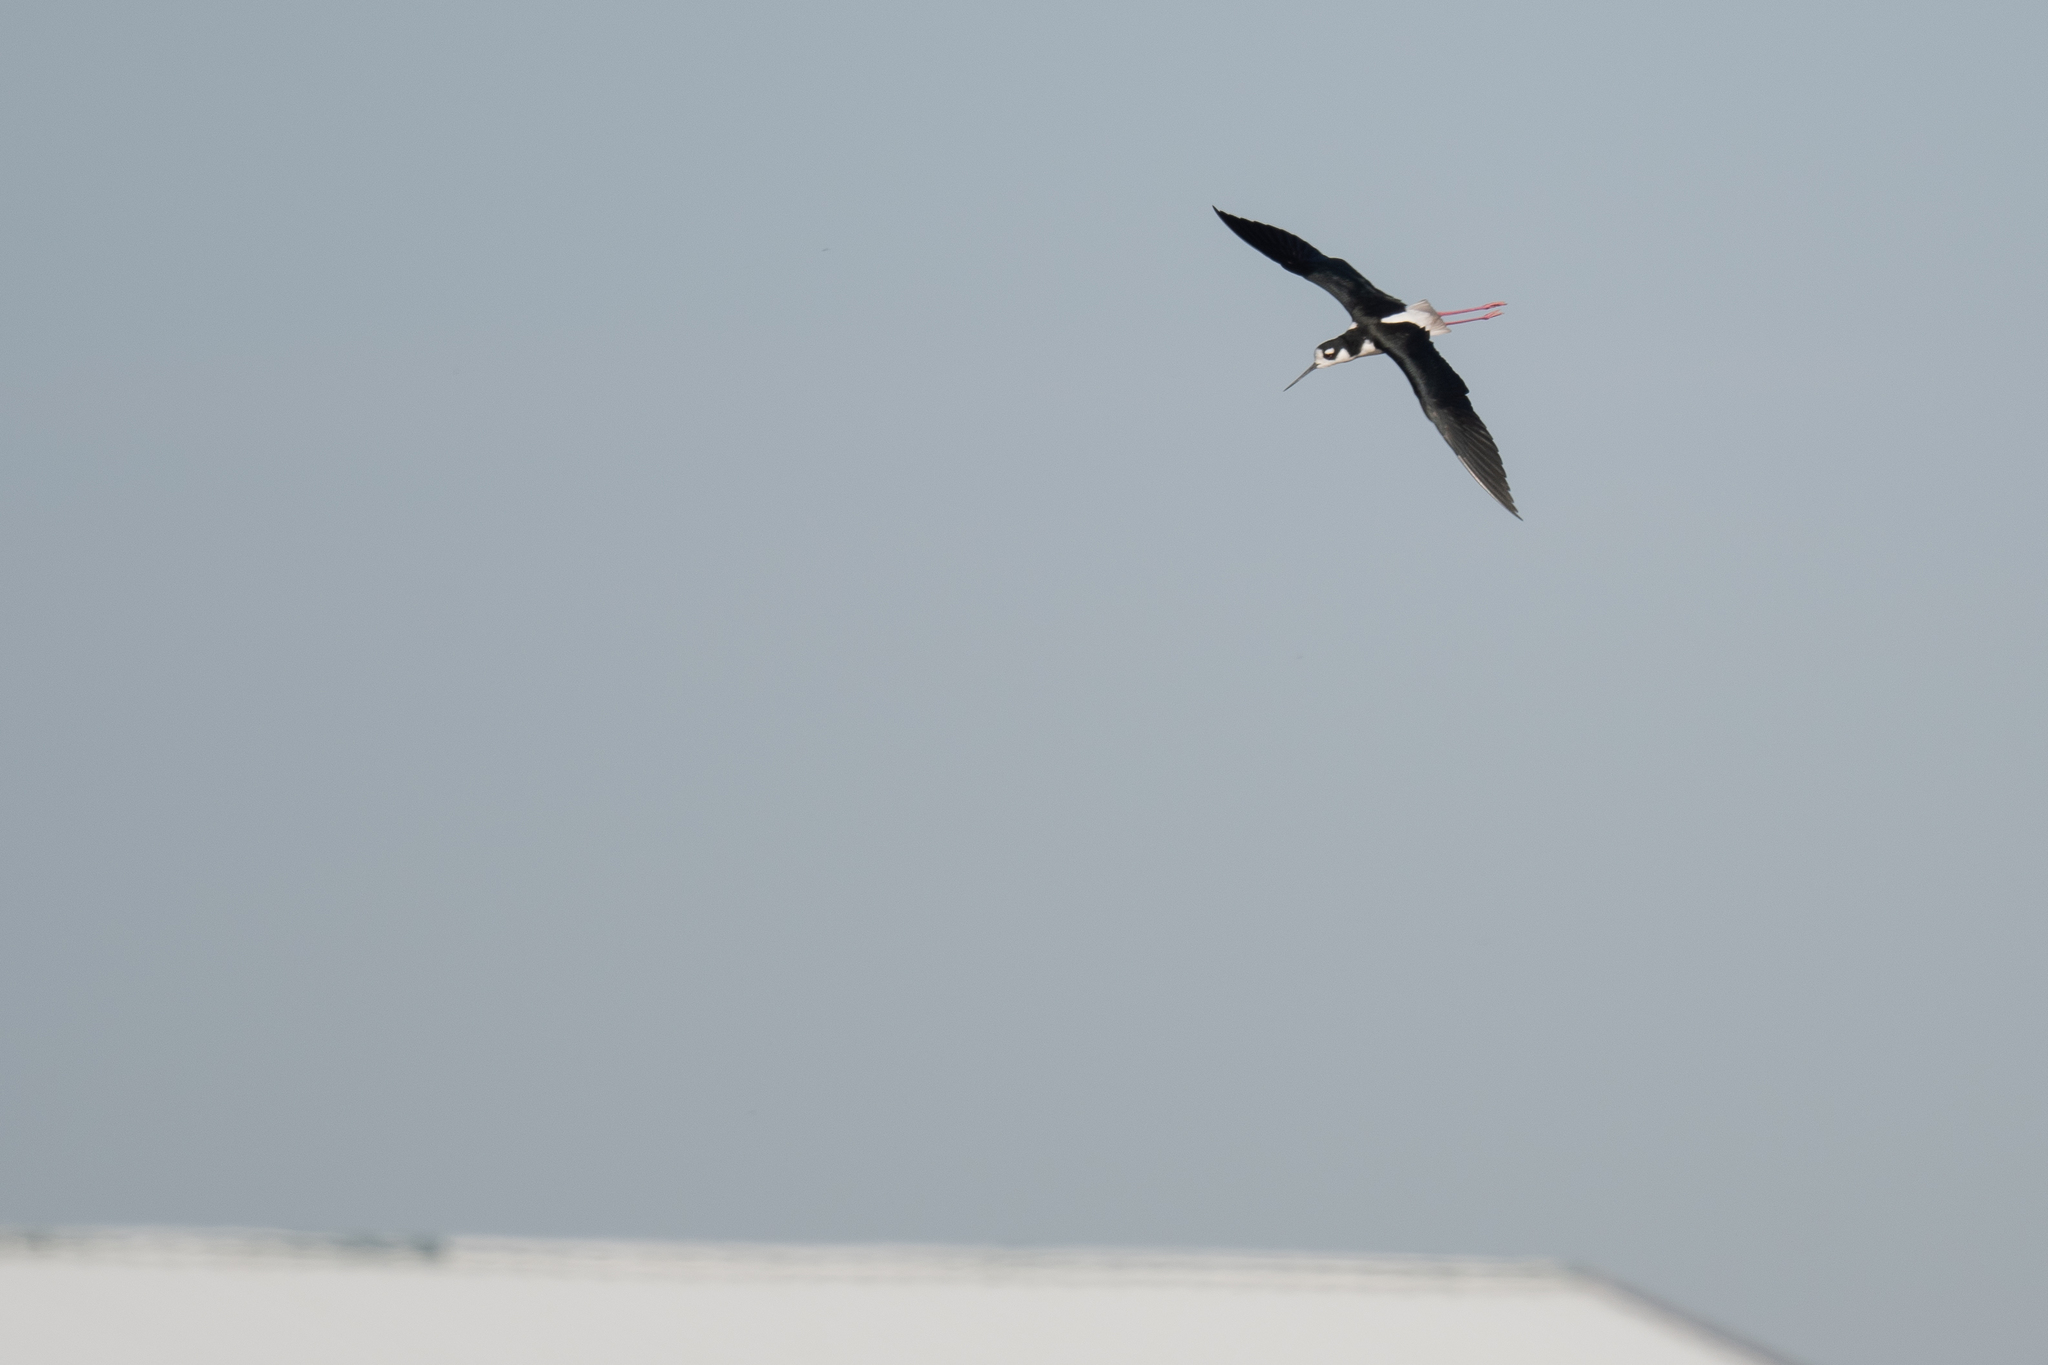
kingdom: Animalia
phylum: Chordata
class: Aves
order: Charadriiformes
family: Recurvirostridae
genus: Himantopus
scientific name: Himantopus mexicanus
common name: Black-necked stilt
